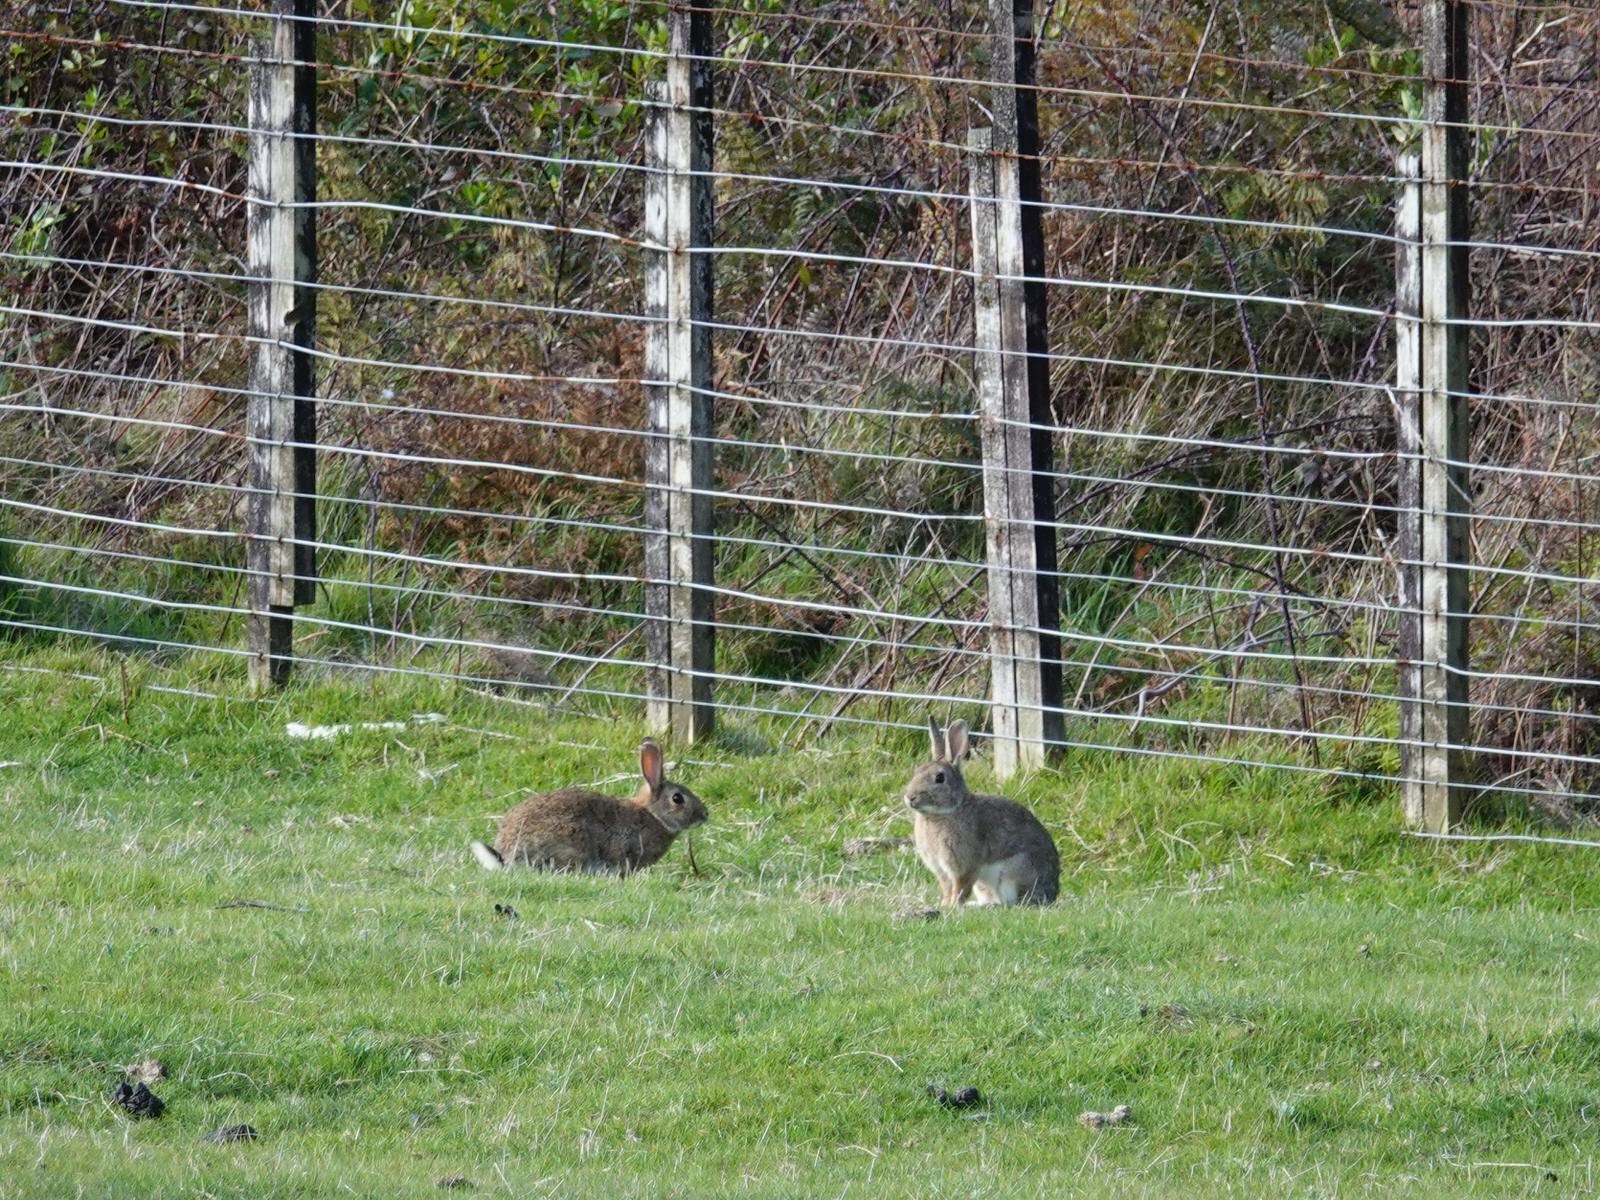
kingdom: Animalia
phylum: Chordata
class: Mammalia
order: Lagomorpha
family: Leporidae
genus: Oryctolagus
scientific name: Oryctolagus cuniculus
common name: European rabbit
